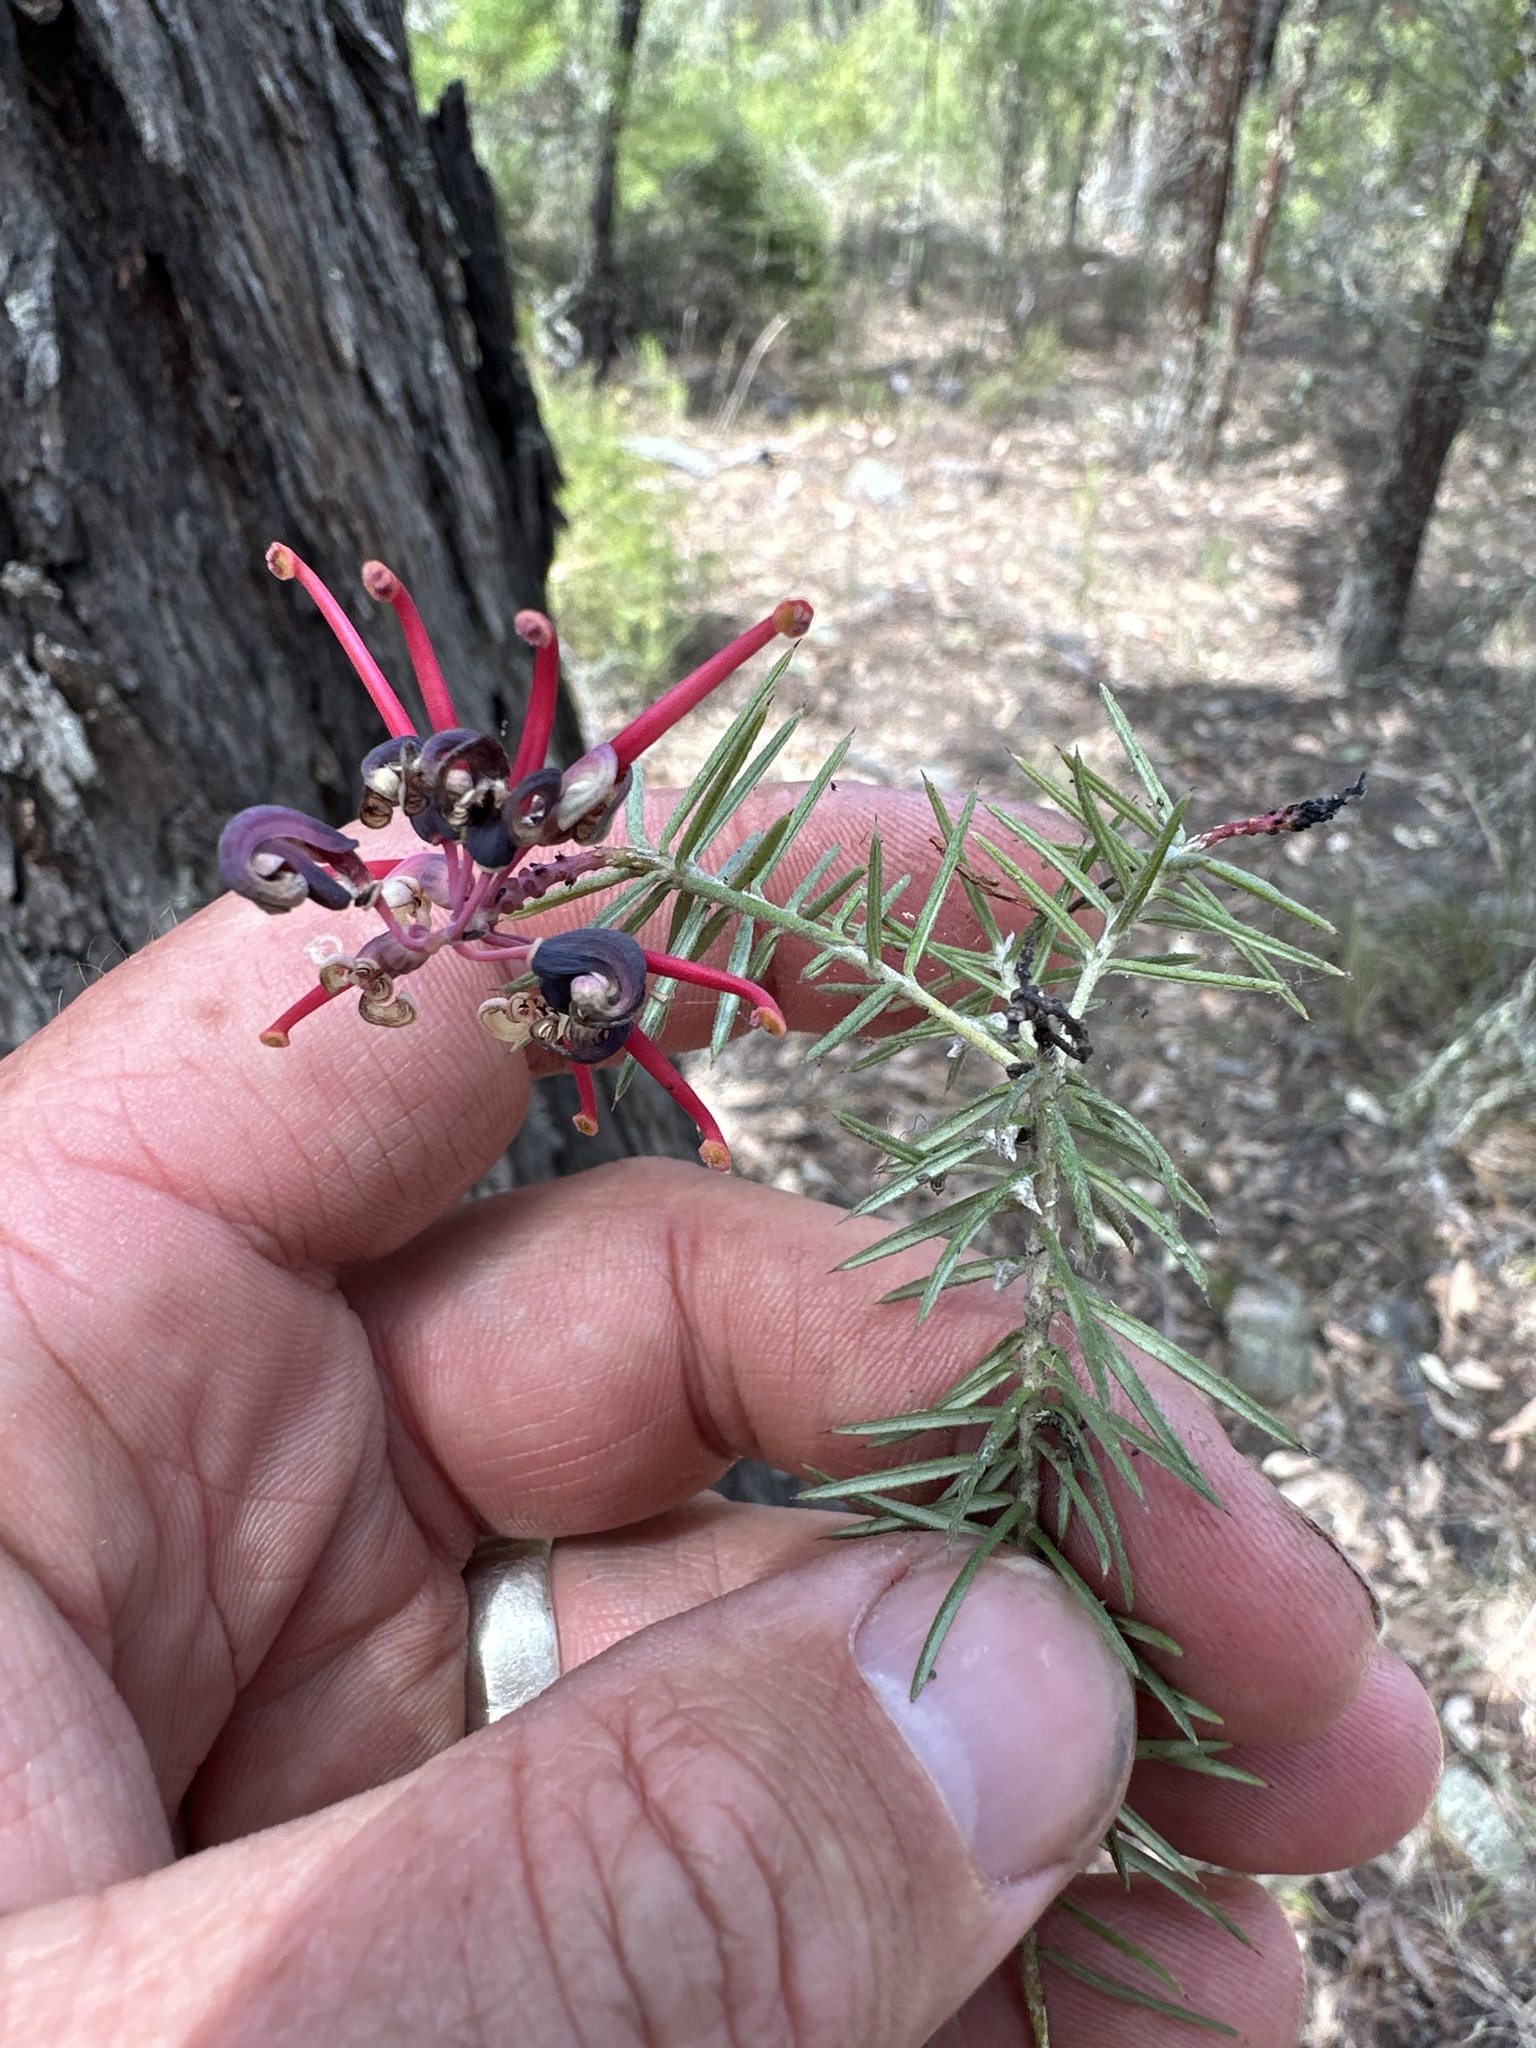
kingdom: Plantae
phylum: Tracheophyta
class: Magnoliopsida
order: Proteales
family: Proteaceae
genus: Grevillea
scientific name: Grevillea juniperina
